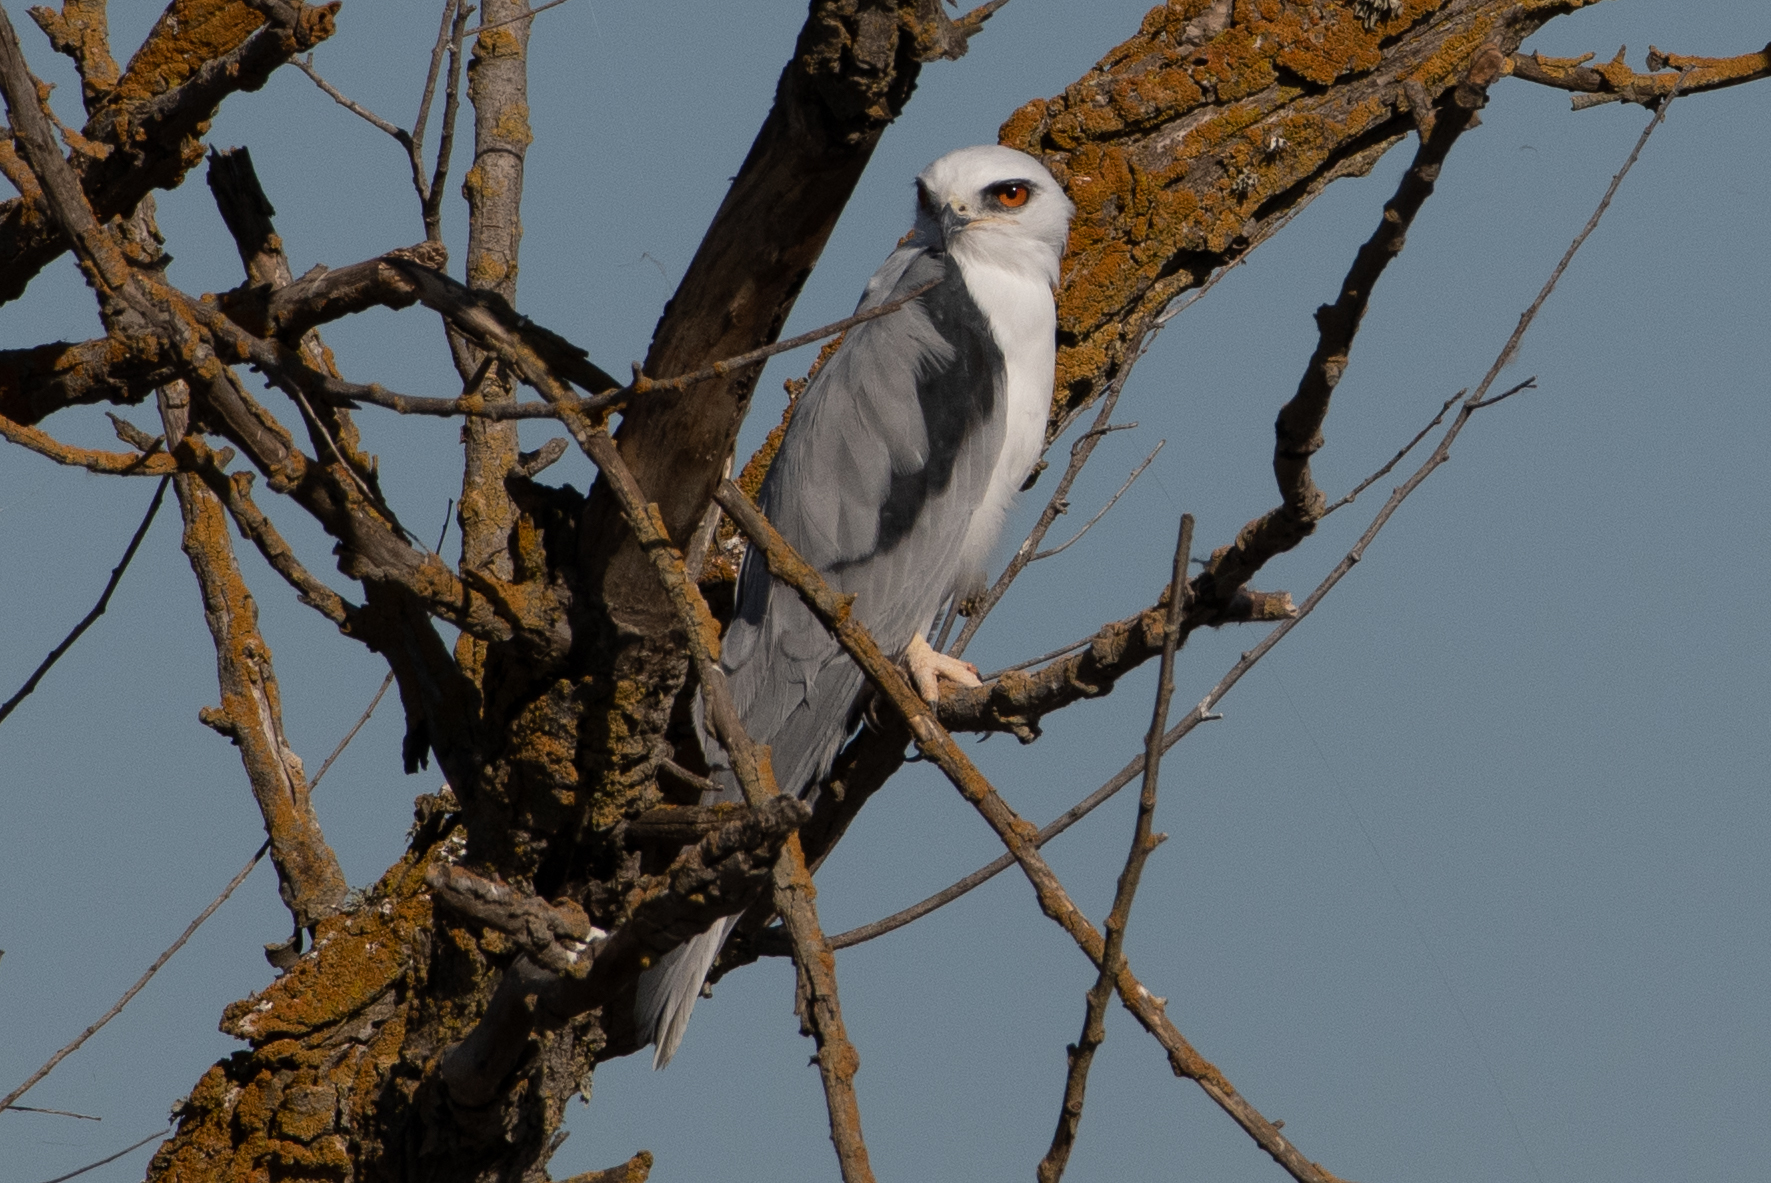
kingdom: Animalia
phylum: Chordata
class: Aves
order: Accipitriformes
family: Accipitridae
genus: Elanus
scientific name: Elanus leucurus
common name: White-tailed kite
